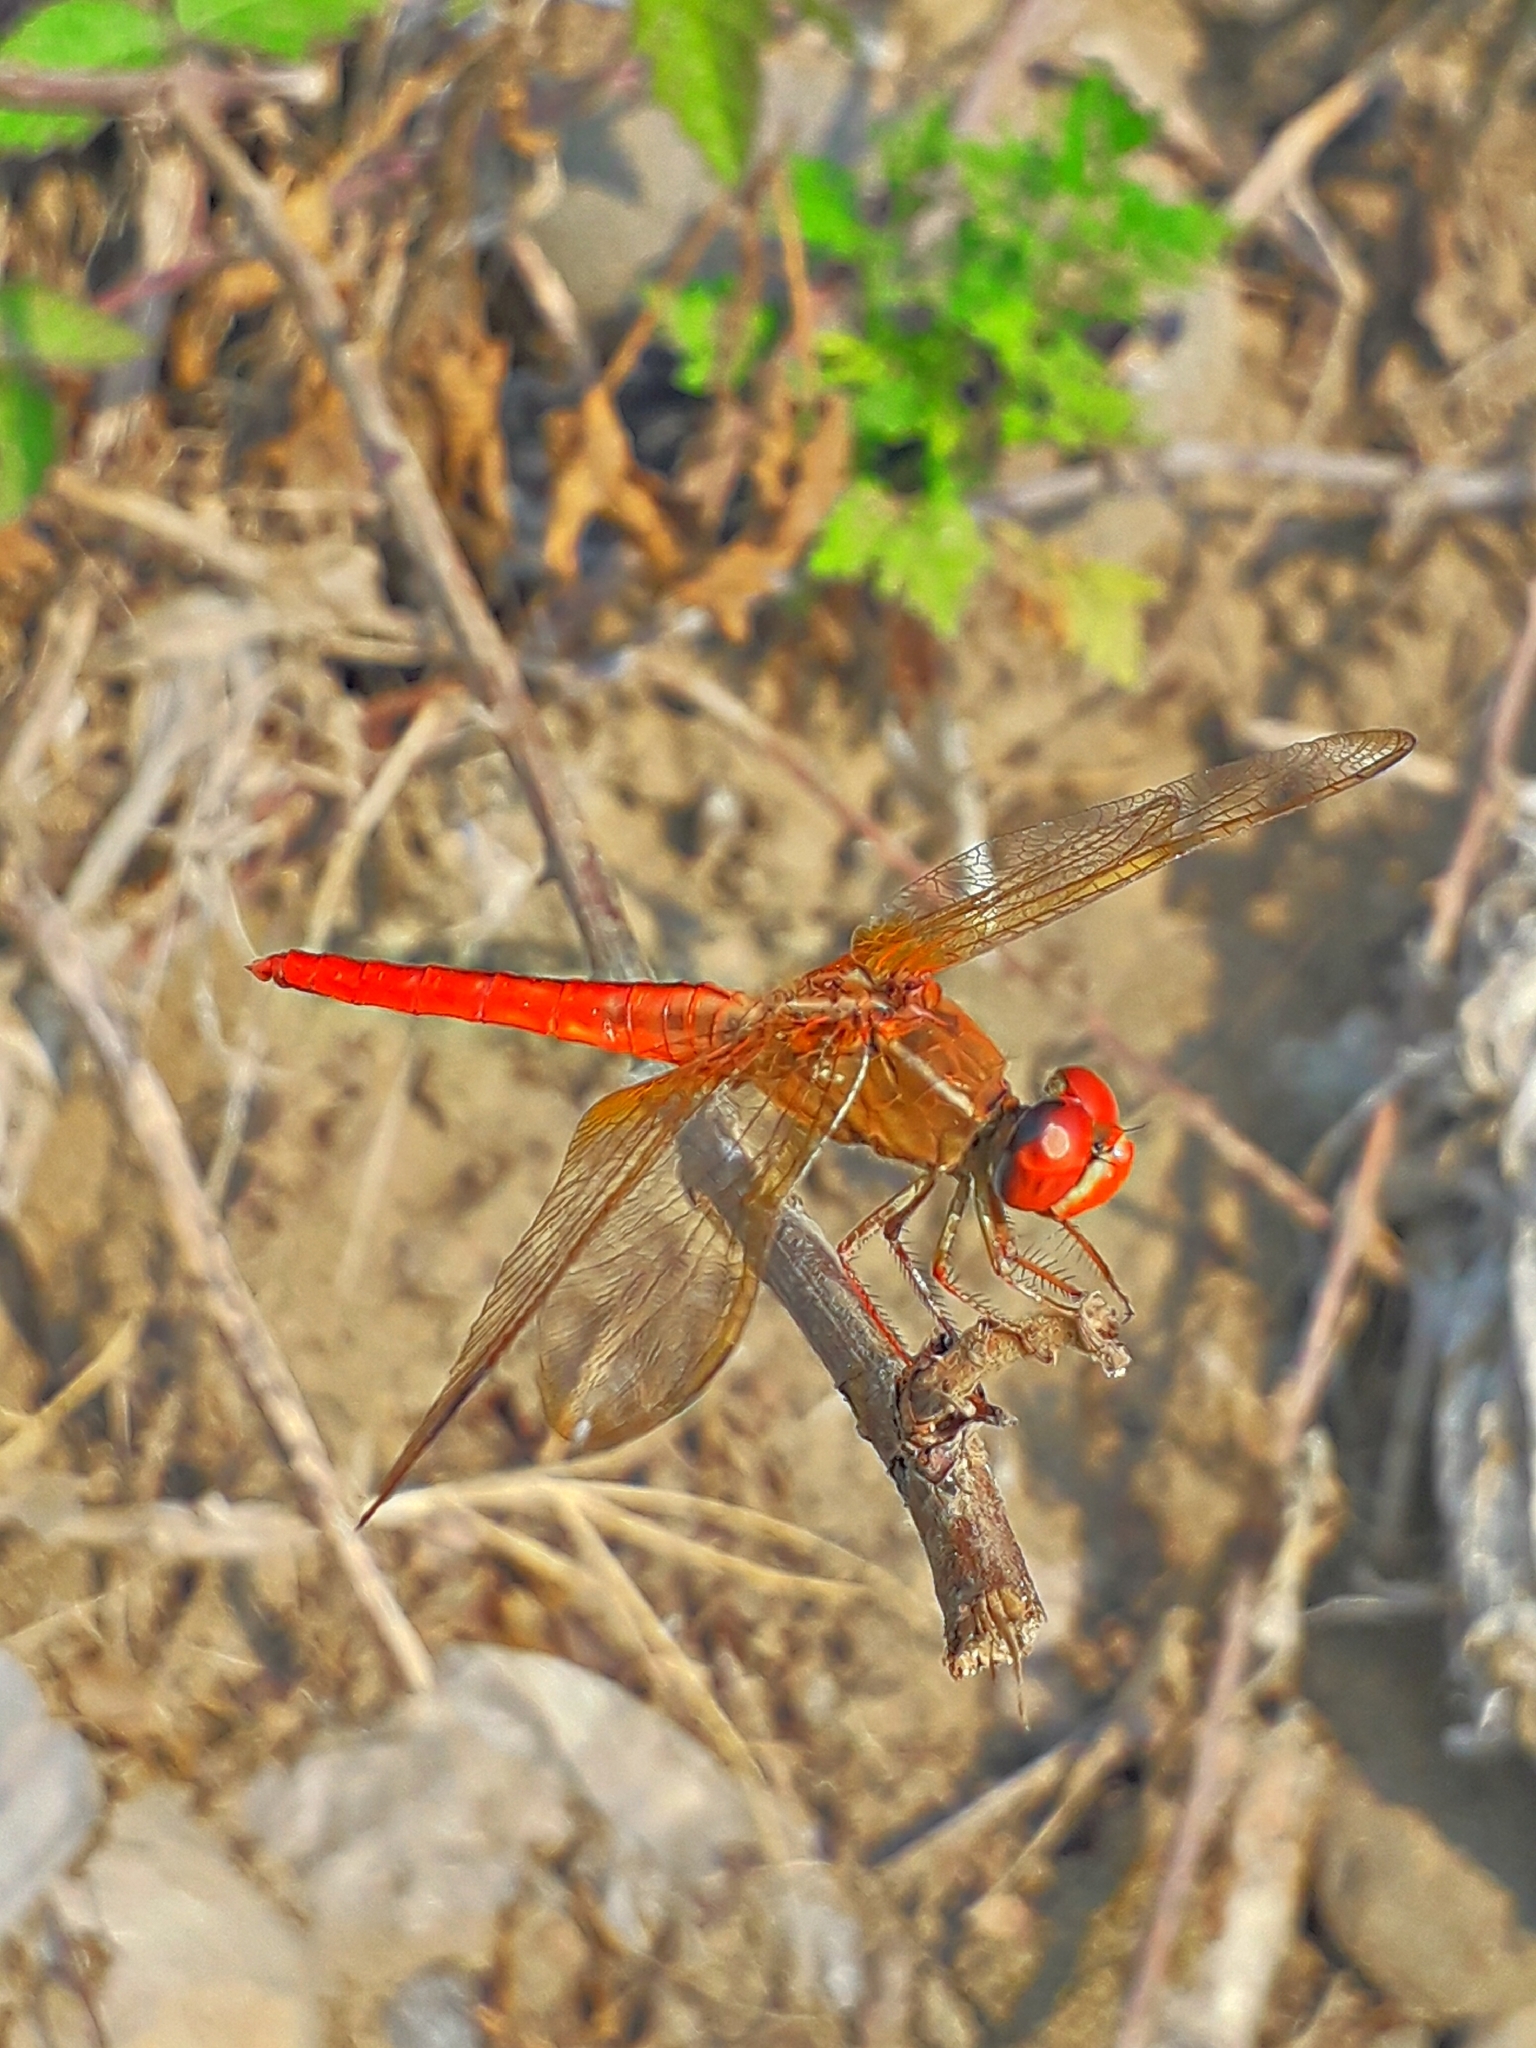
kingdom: Animalia
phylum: Arthropoda
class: Insecta
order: Odonata
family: Libellulidae
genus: Crocothemis
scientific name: Crocothemis servilia
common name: Scarlet skimmer
